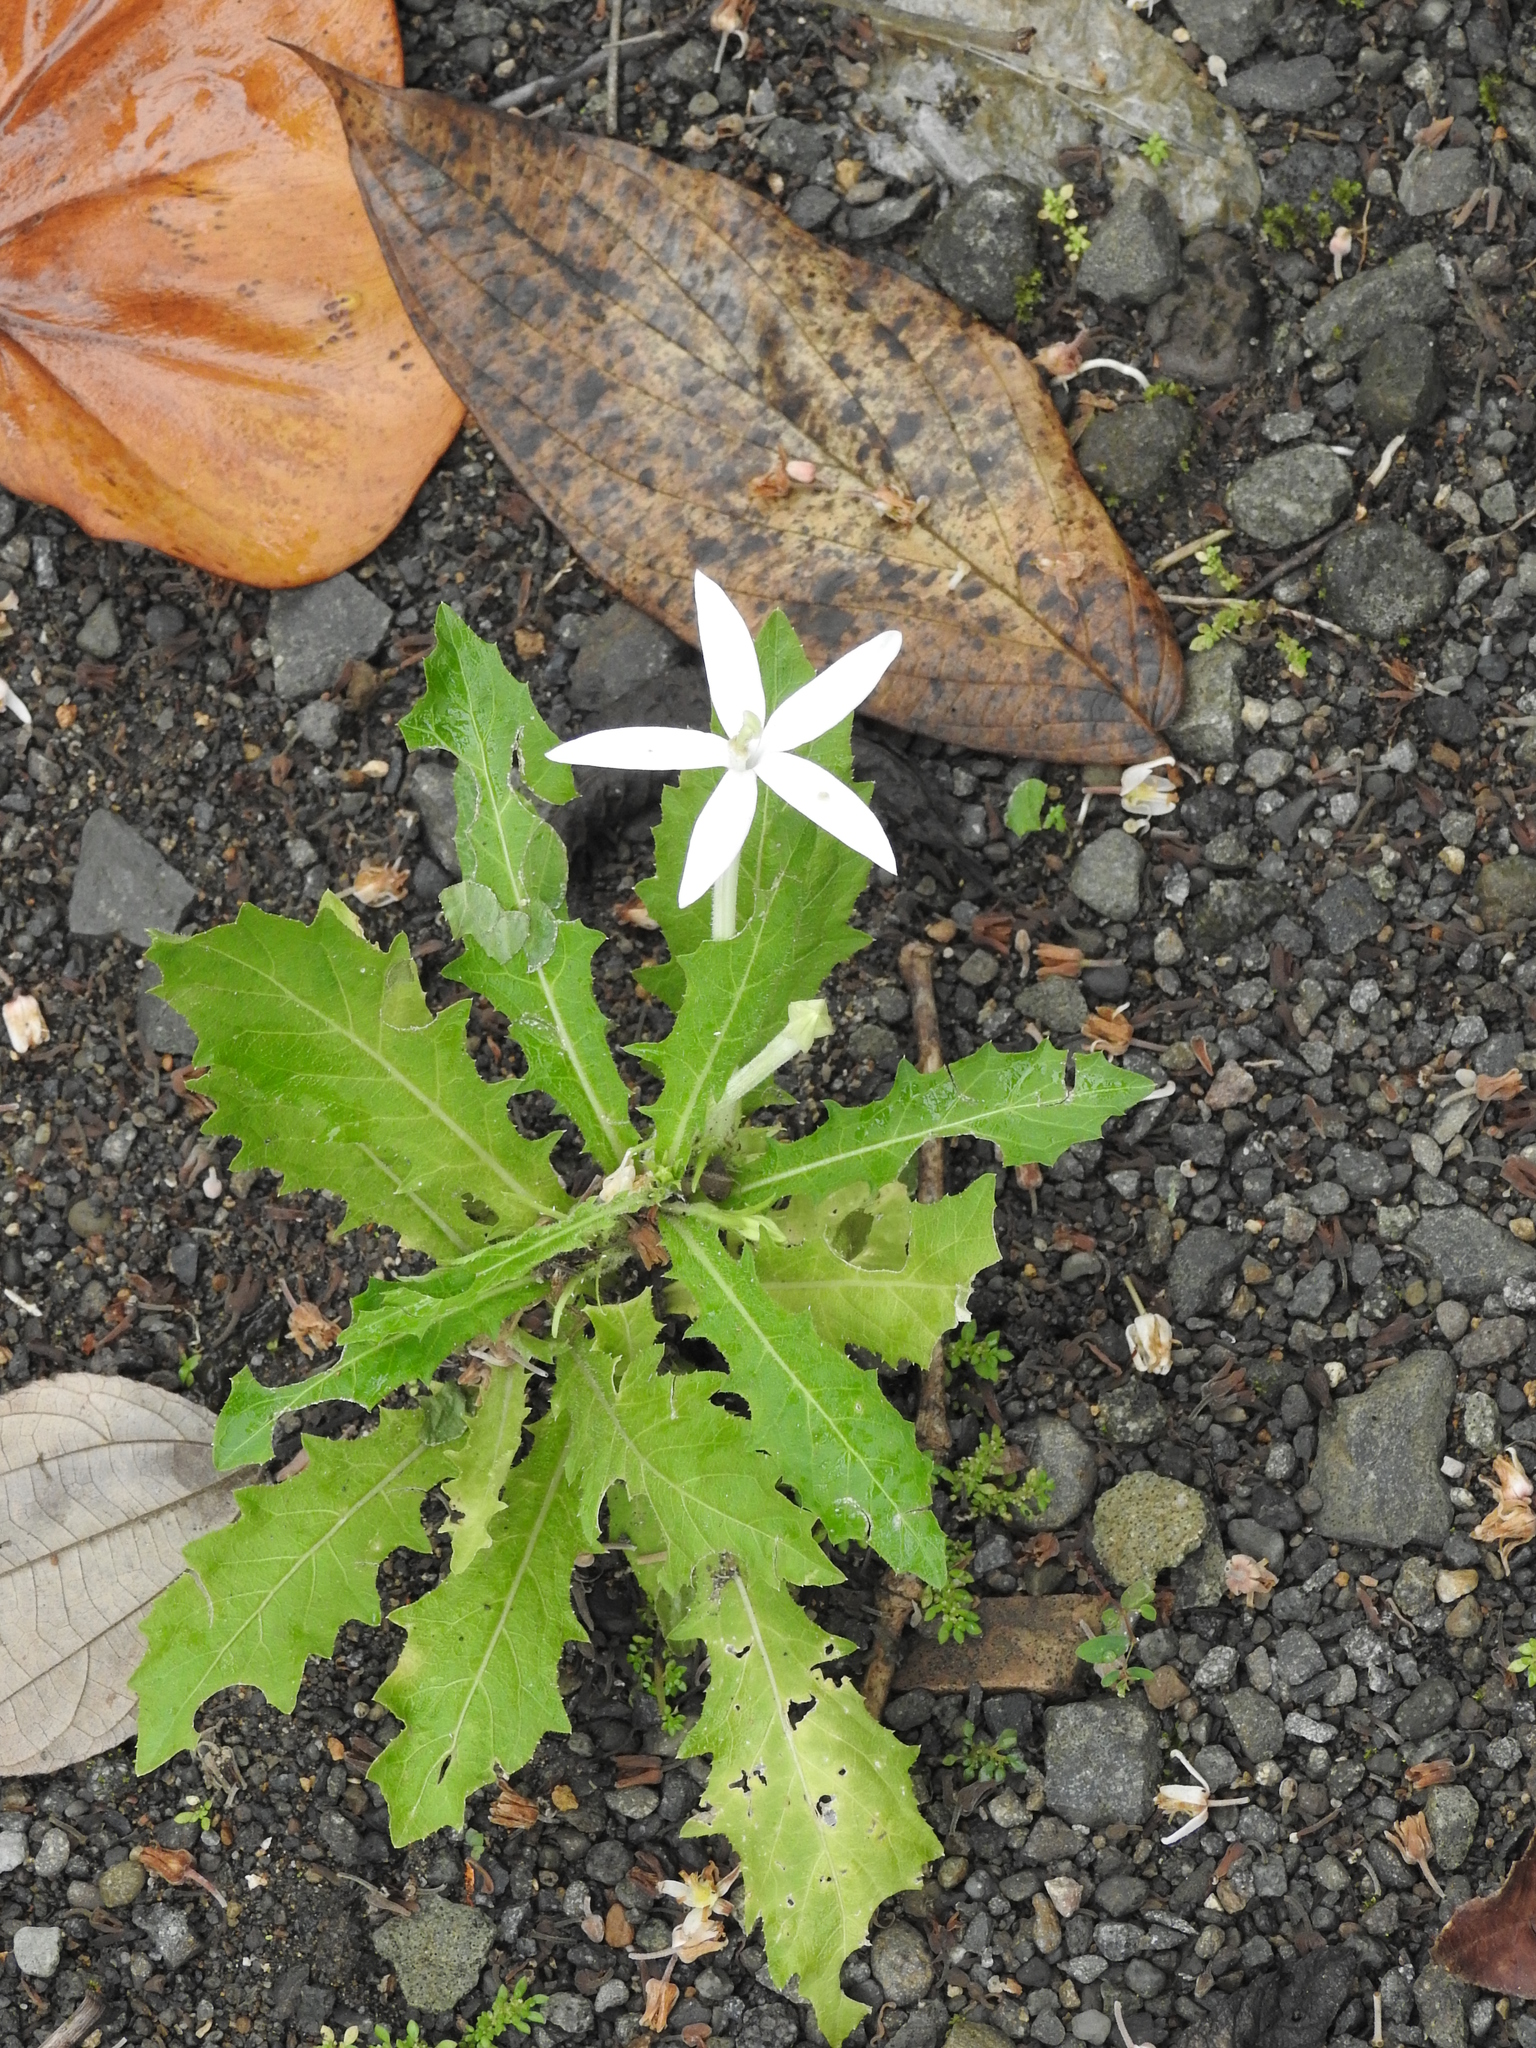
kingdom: Plantae
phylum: Tracheophyta
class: Magnoliopsida
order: Asterales
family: Campanulaceae
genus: Hippobroma
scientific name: Hippobroma longiflora
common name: Madamfate
